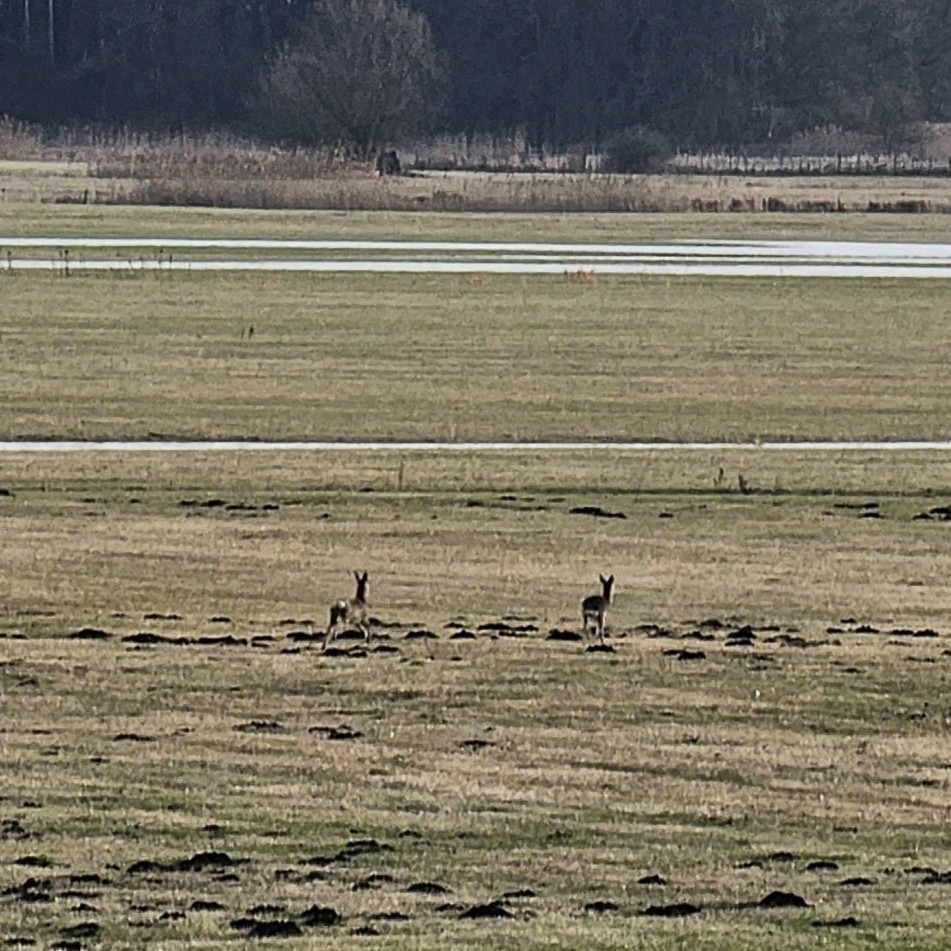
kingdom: Animalia
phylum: Chordata
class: Mammalia
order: Artiodactyla
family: Cervidae
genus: Capreolus
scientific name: Capreolus capreolus
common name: Western roe deer
